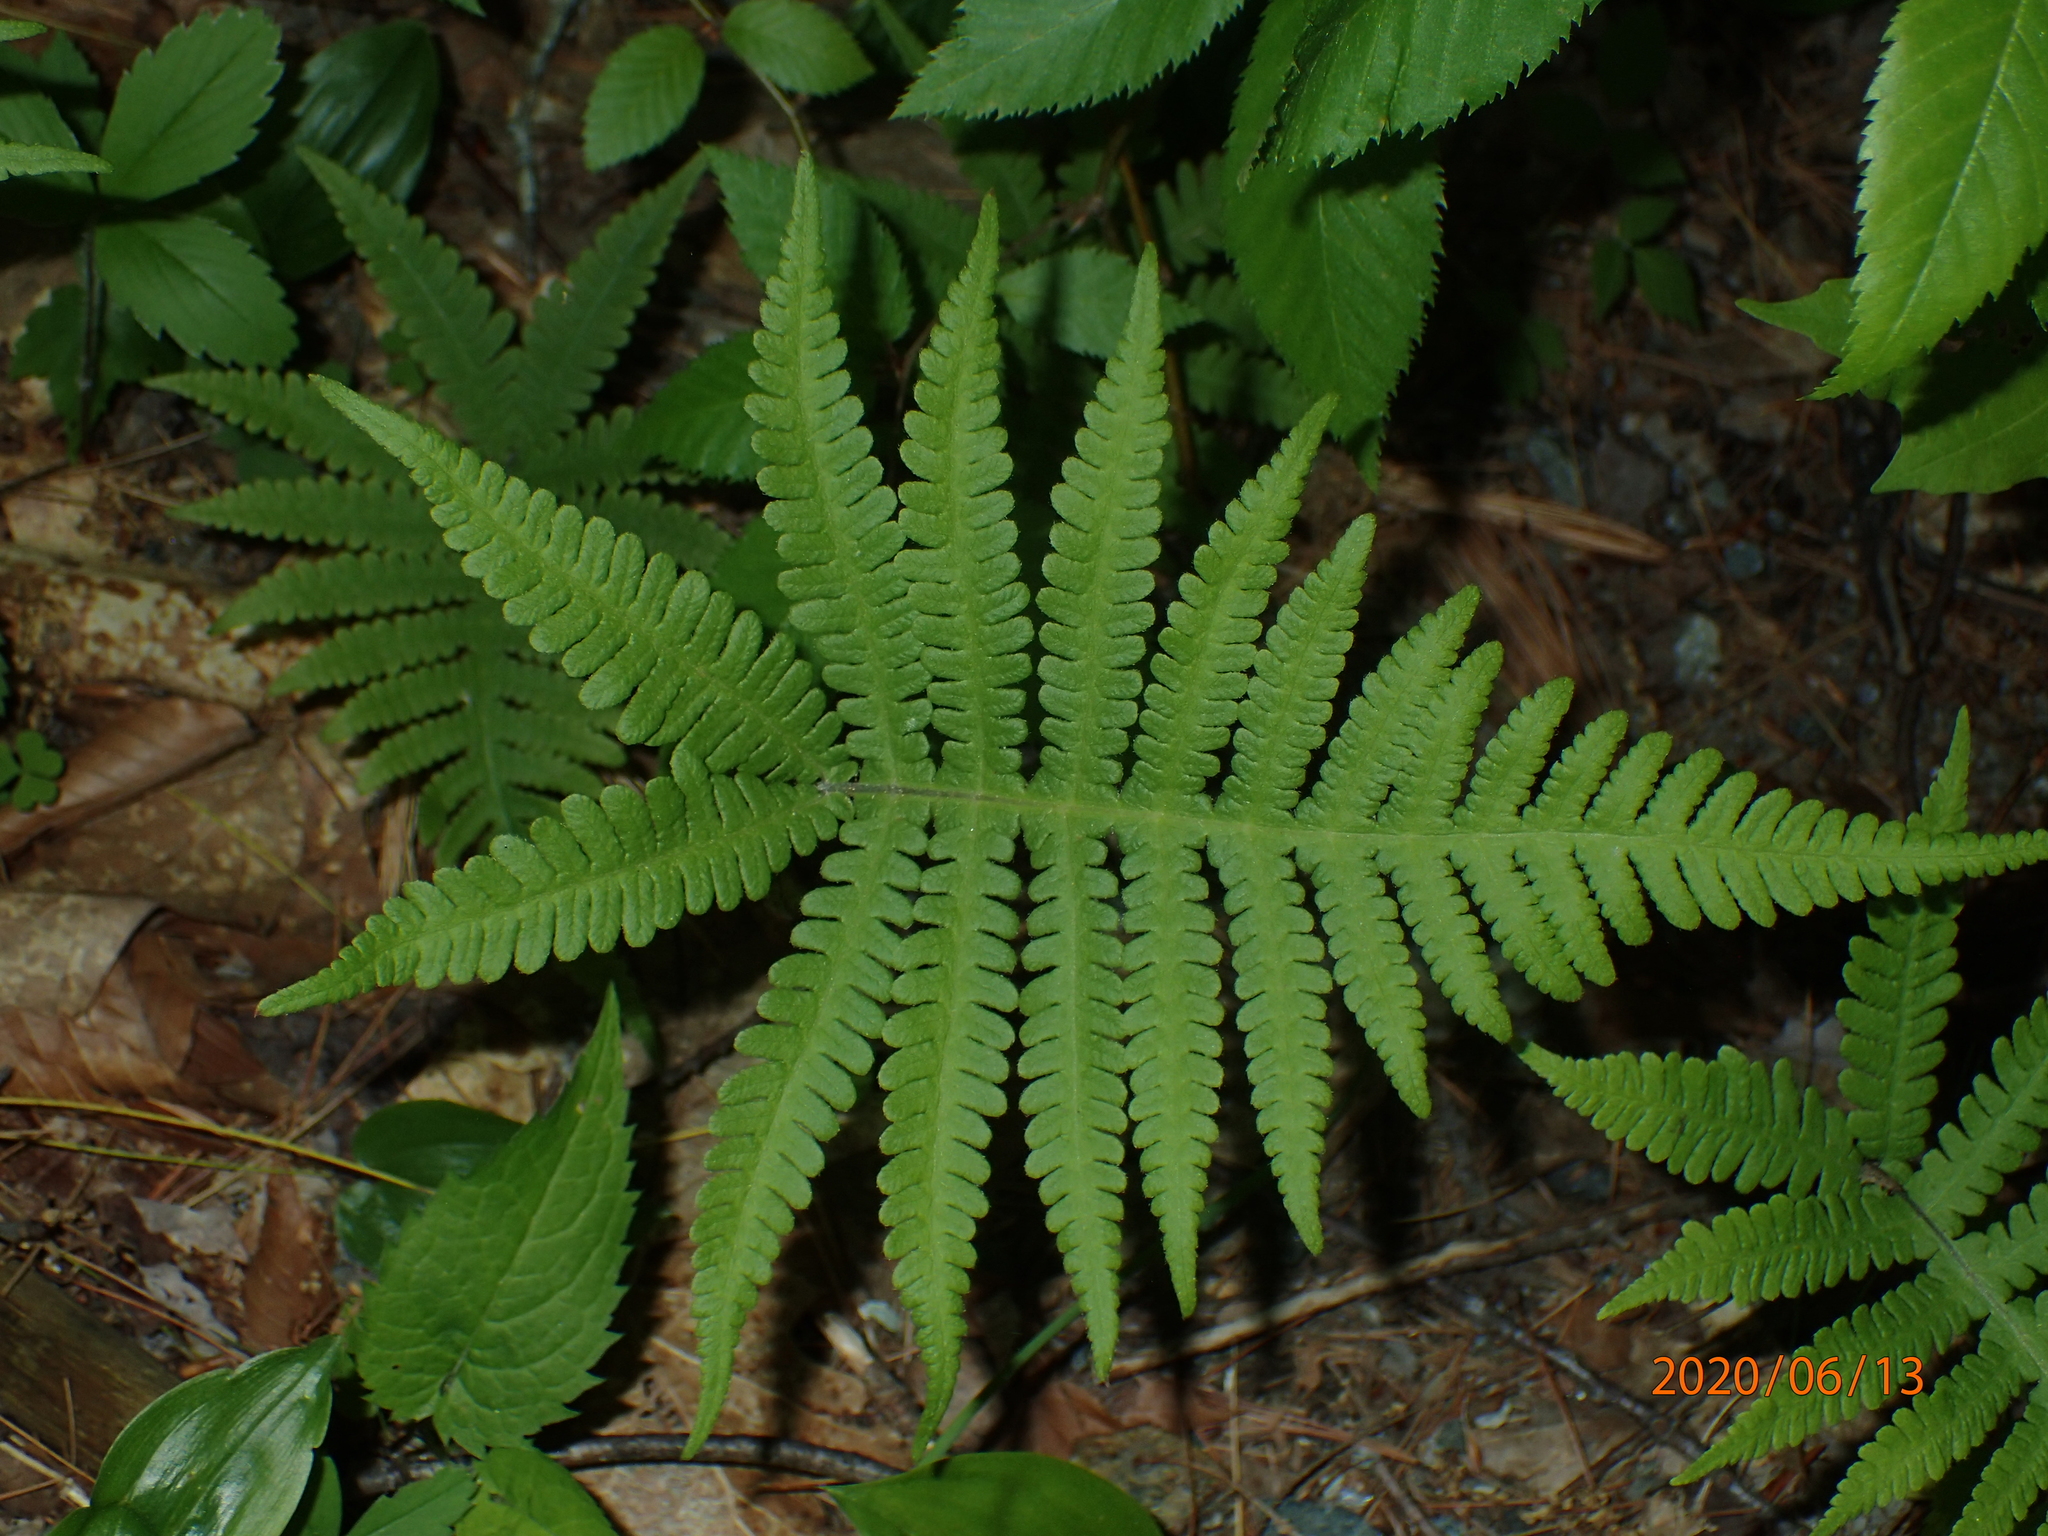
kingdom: Plantae
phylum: Tracheophyta
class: Polypodiopsida
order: Polypodiales
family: Thelypteridaceae
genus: Phegopteris
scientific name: Phegopteris connectilis
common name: Beech fern
